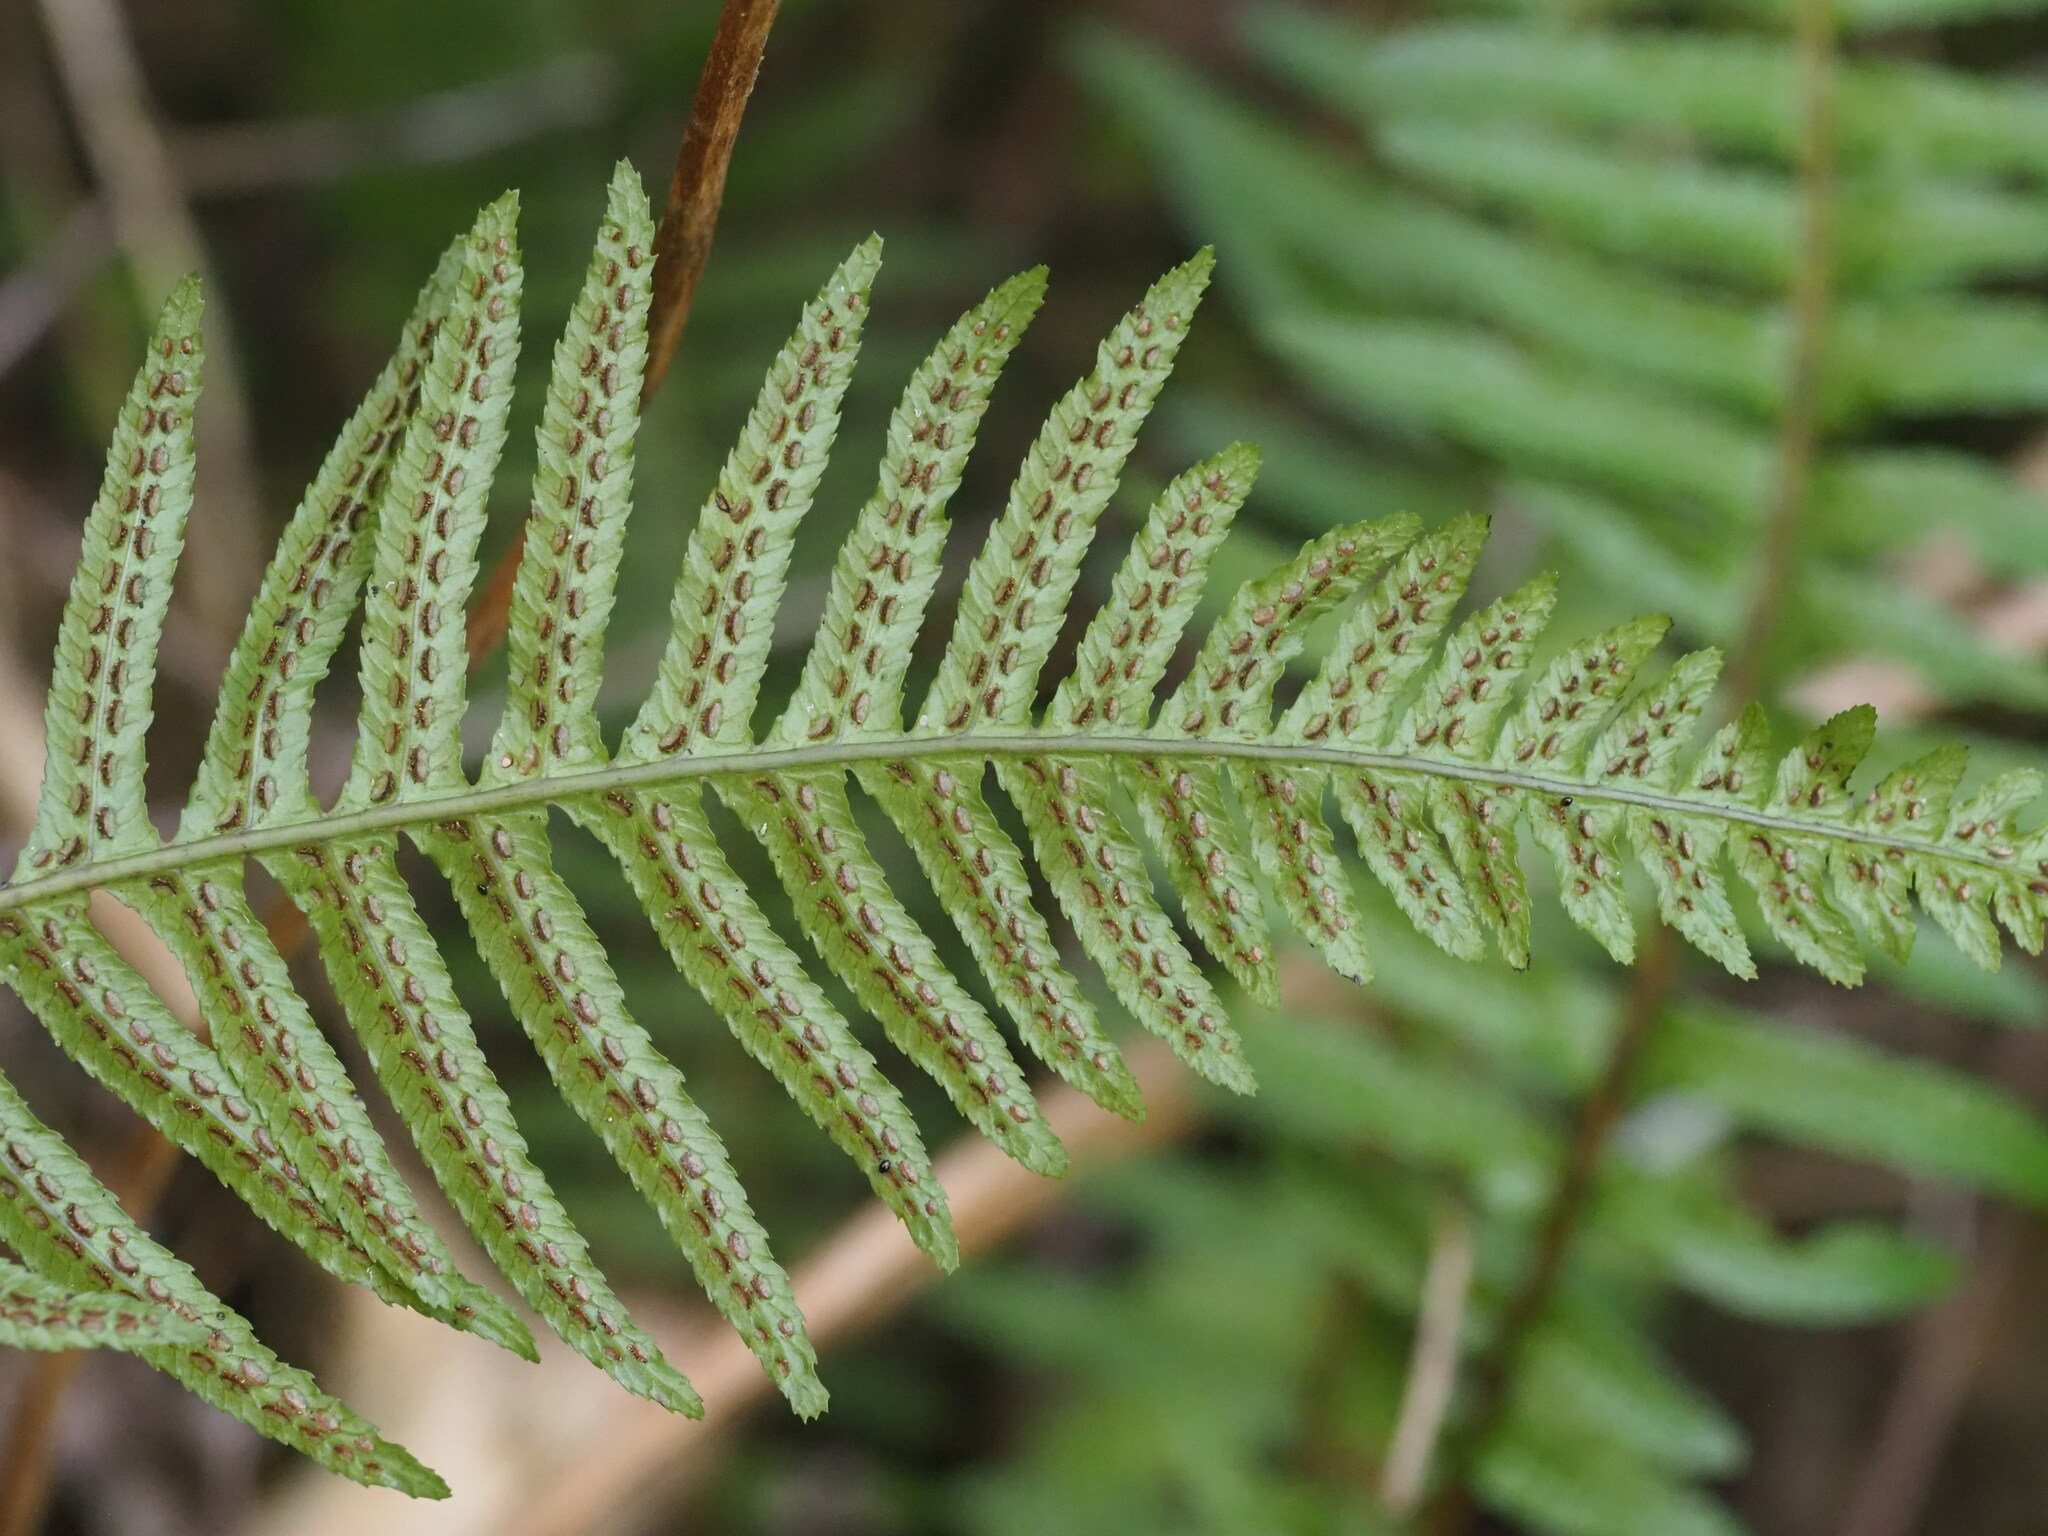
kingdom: Plantae
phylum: Tracheophyta
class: Polypodiopsida
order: Polypodiales
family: Blechnaceae
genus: Doodia
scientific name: Doodia kunthiana
